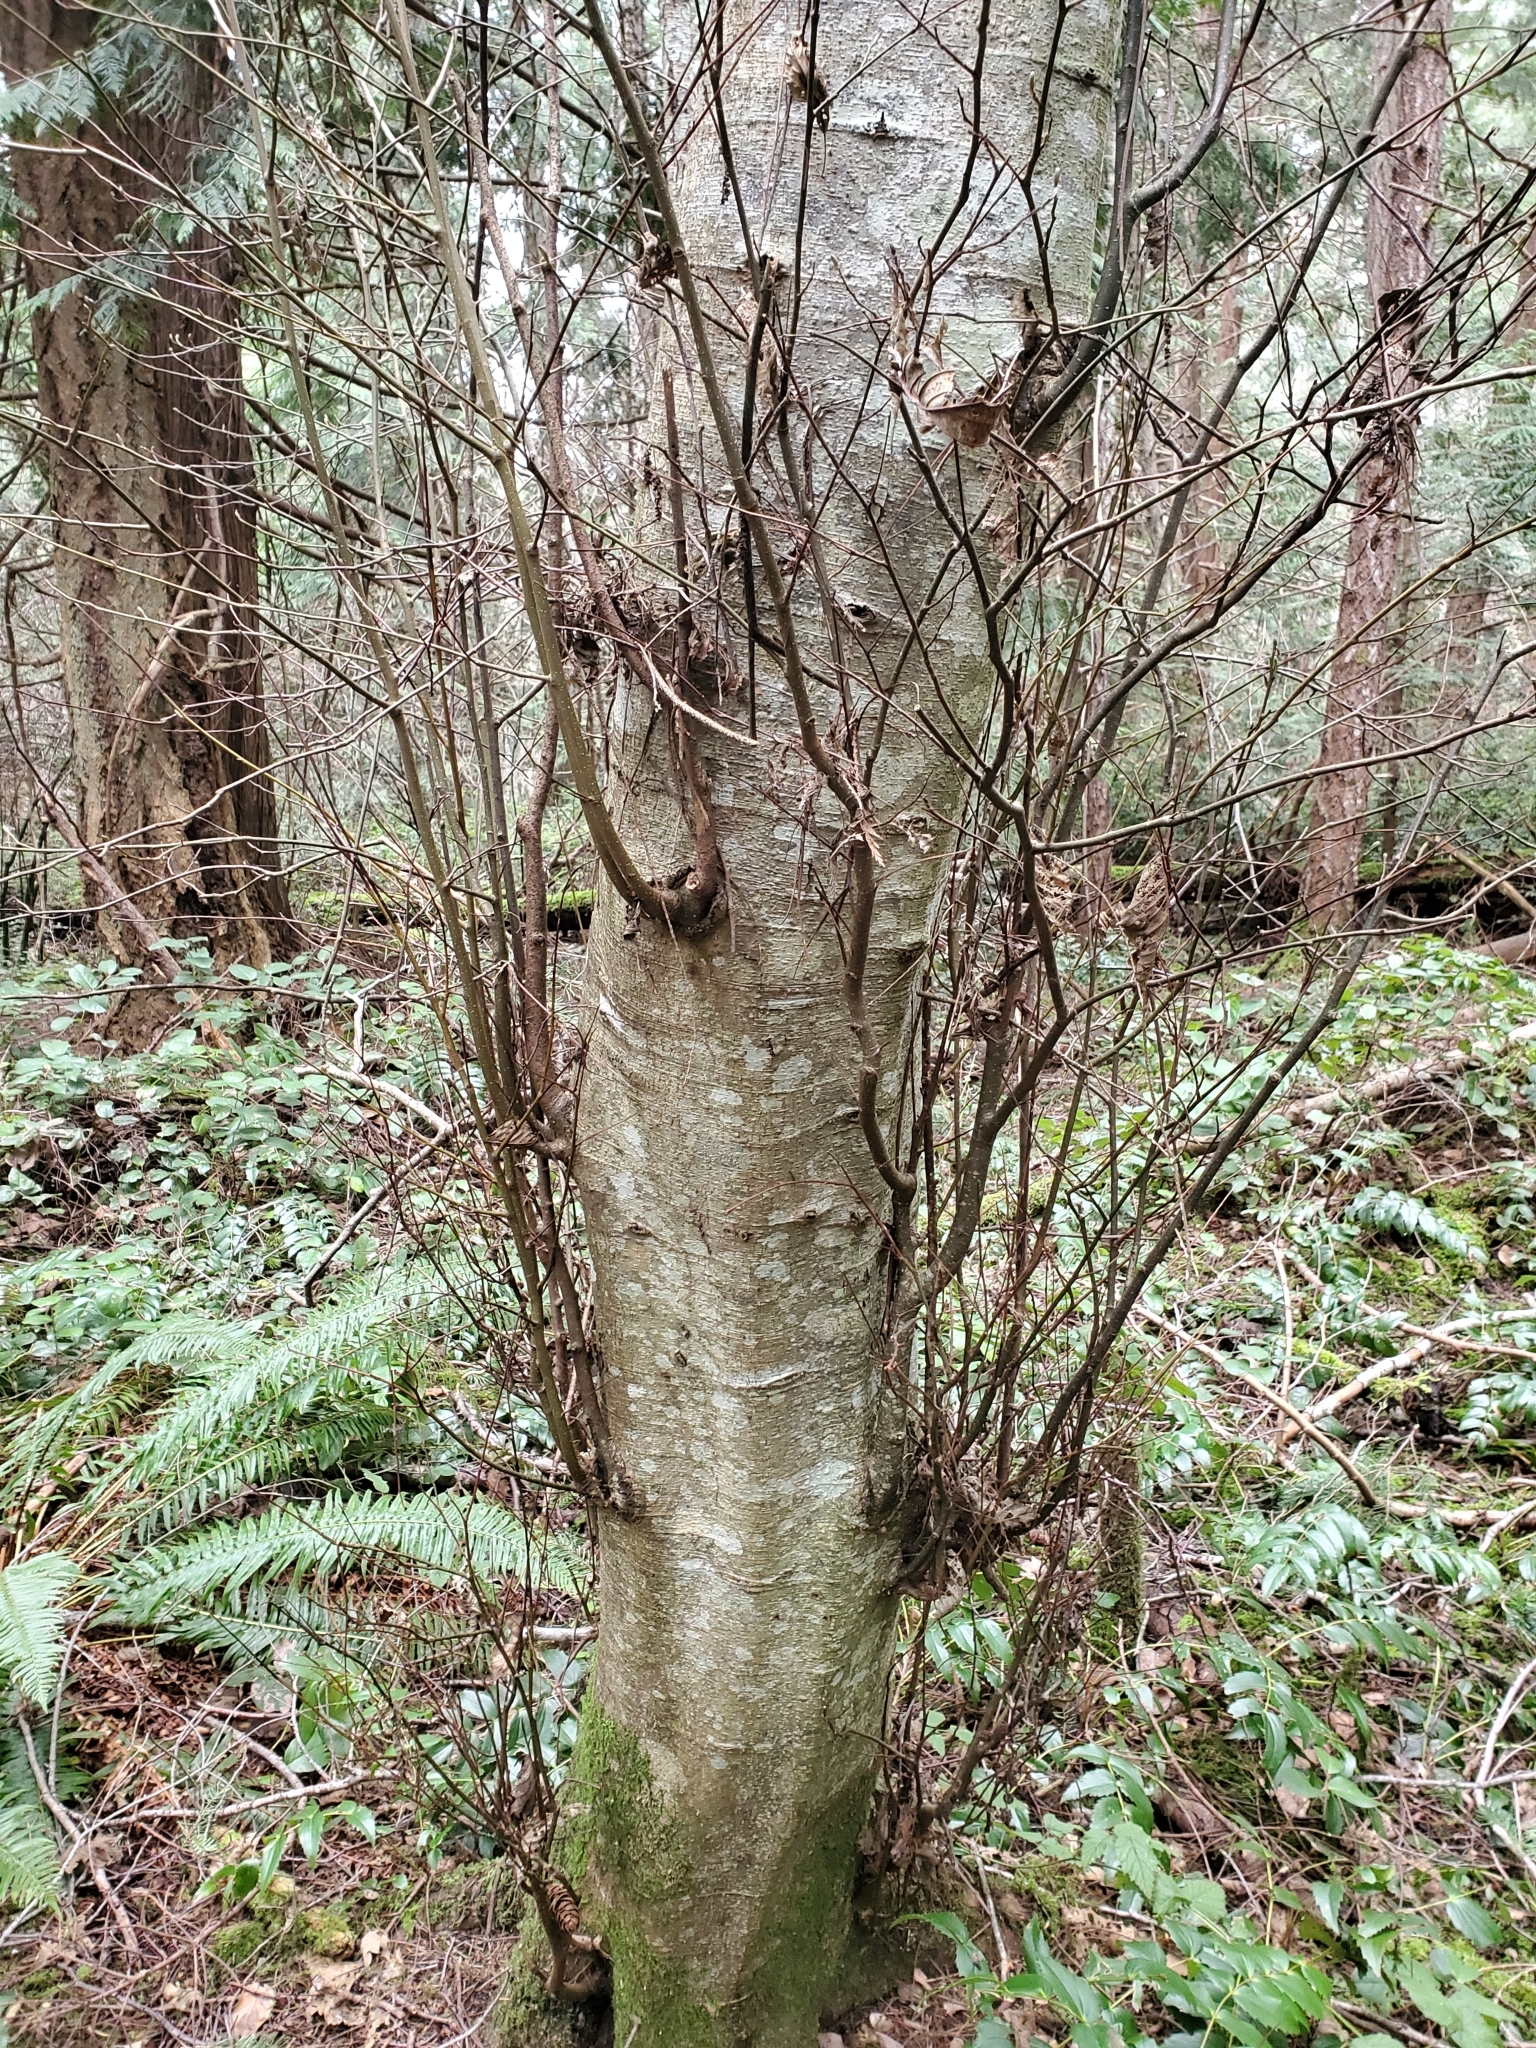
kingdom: Plantae
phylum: Tracheophyta
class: Magnoliopsida
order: Fagales
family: Betulaceae
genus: Alnus
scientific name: Alnus rubra
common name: Red alder
